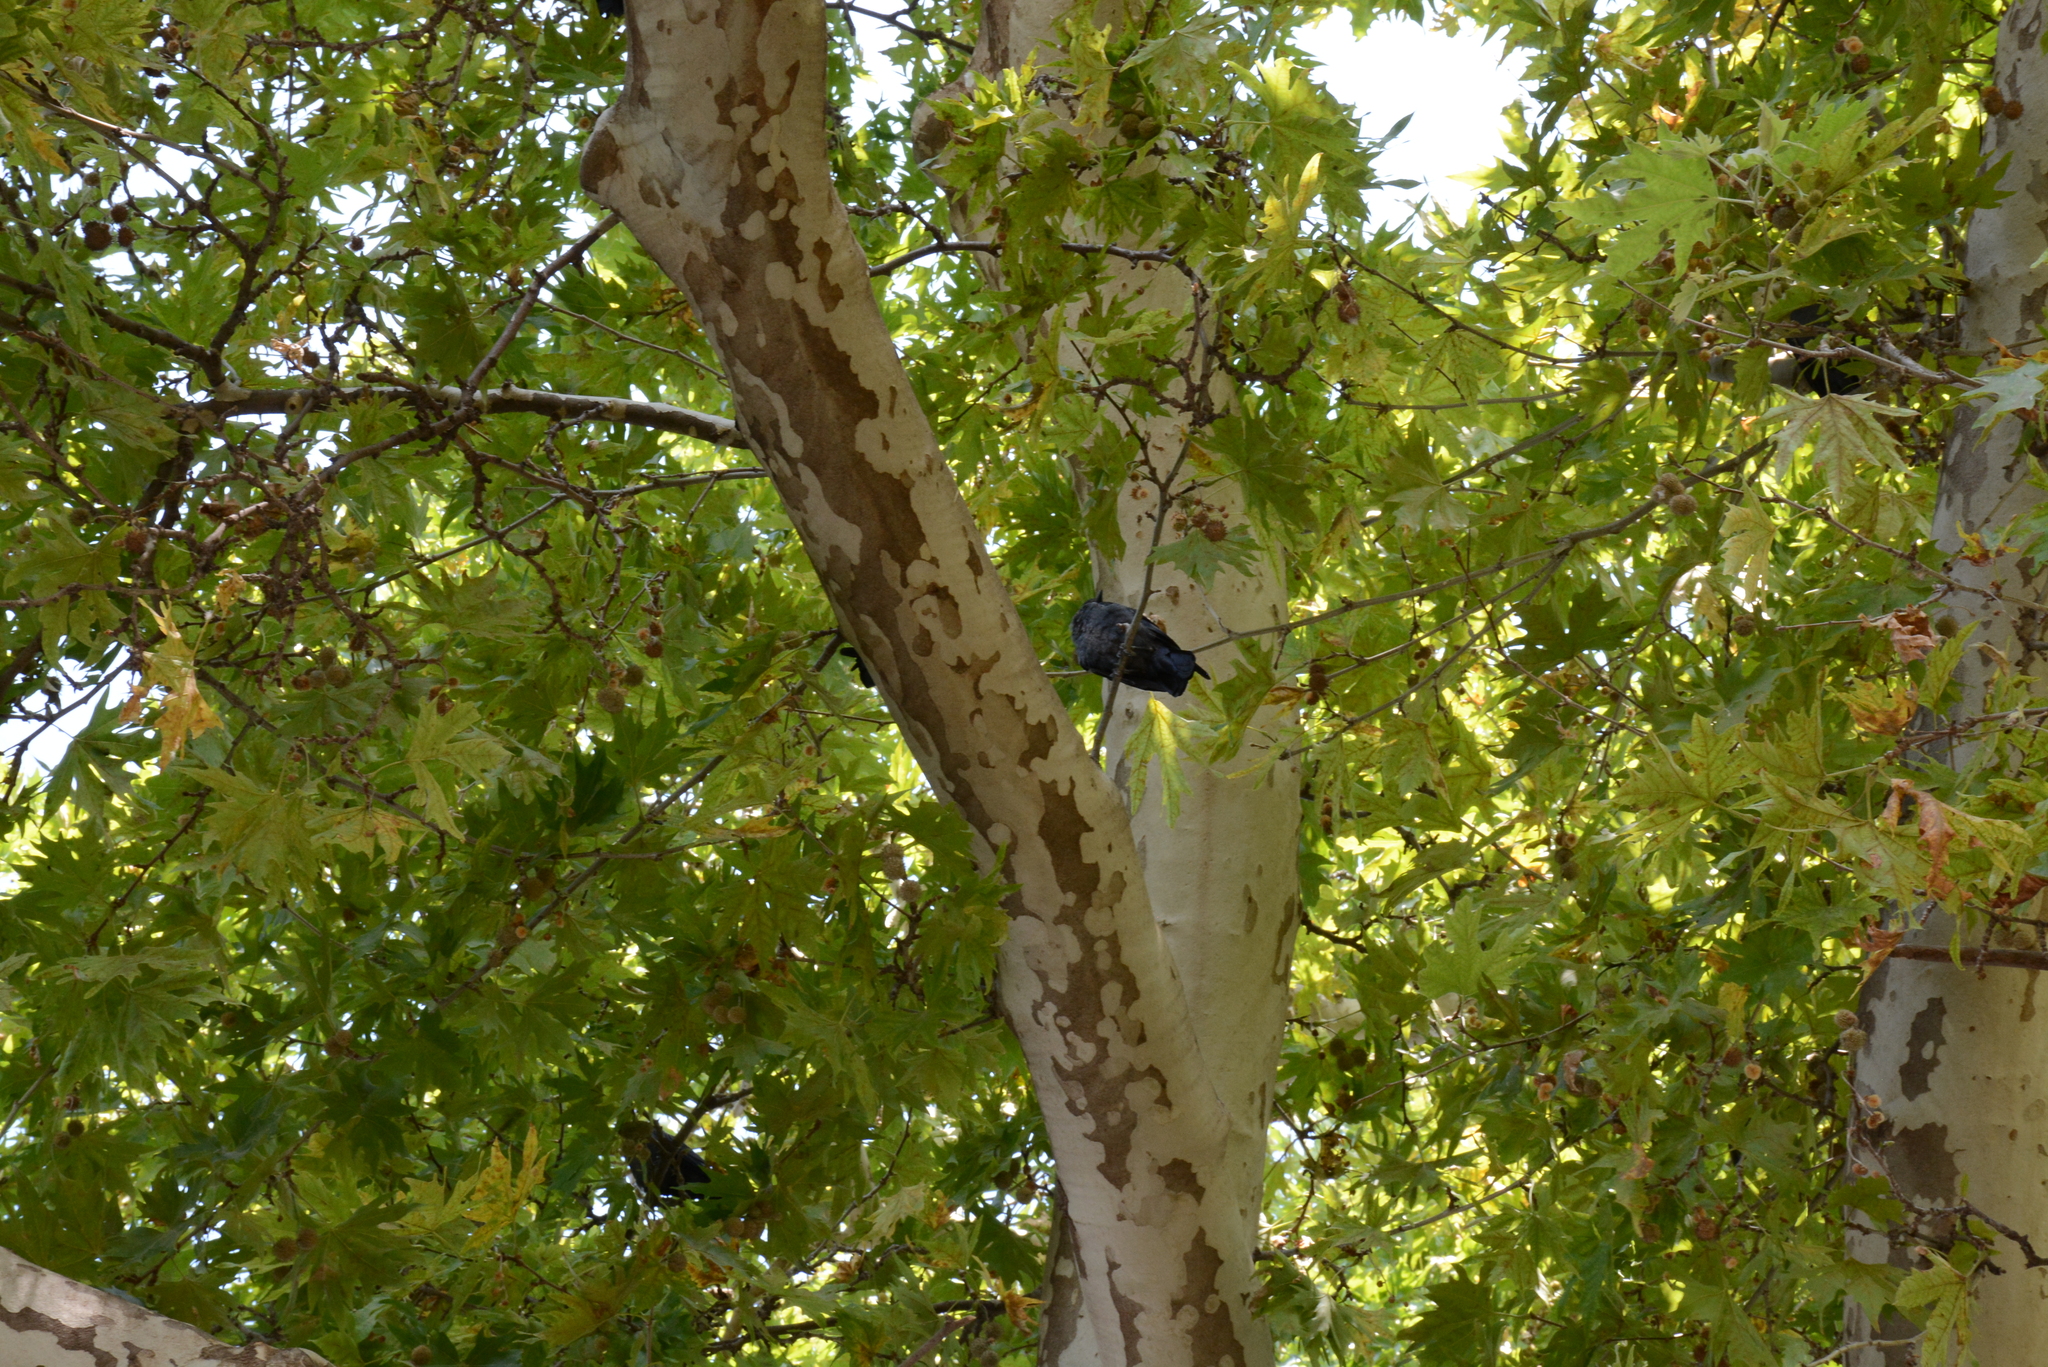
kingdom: Animalia
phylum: Chordata
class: Aves
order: Passeriformes
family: Corvidae
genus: Coloeus
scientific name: Coloeus monedula
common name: Western jackdaw
